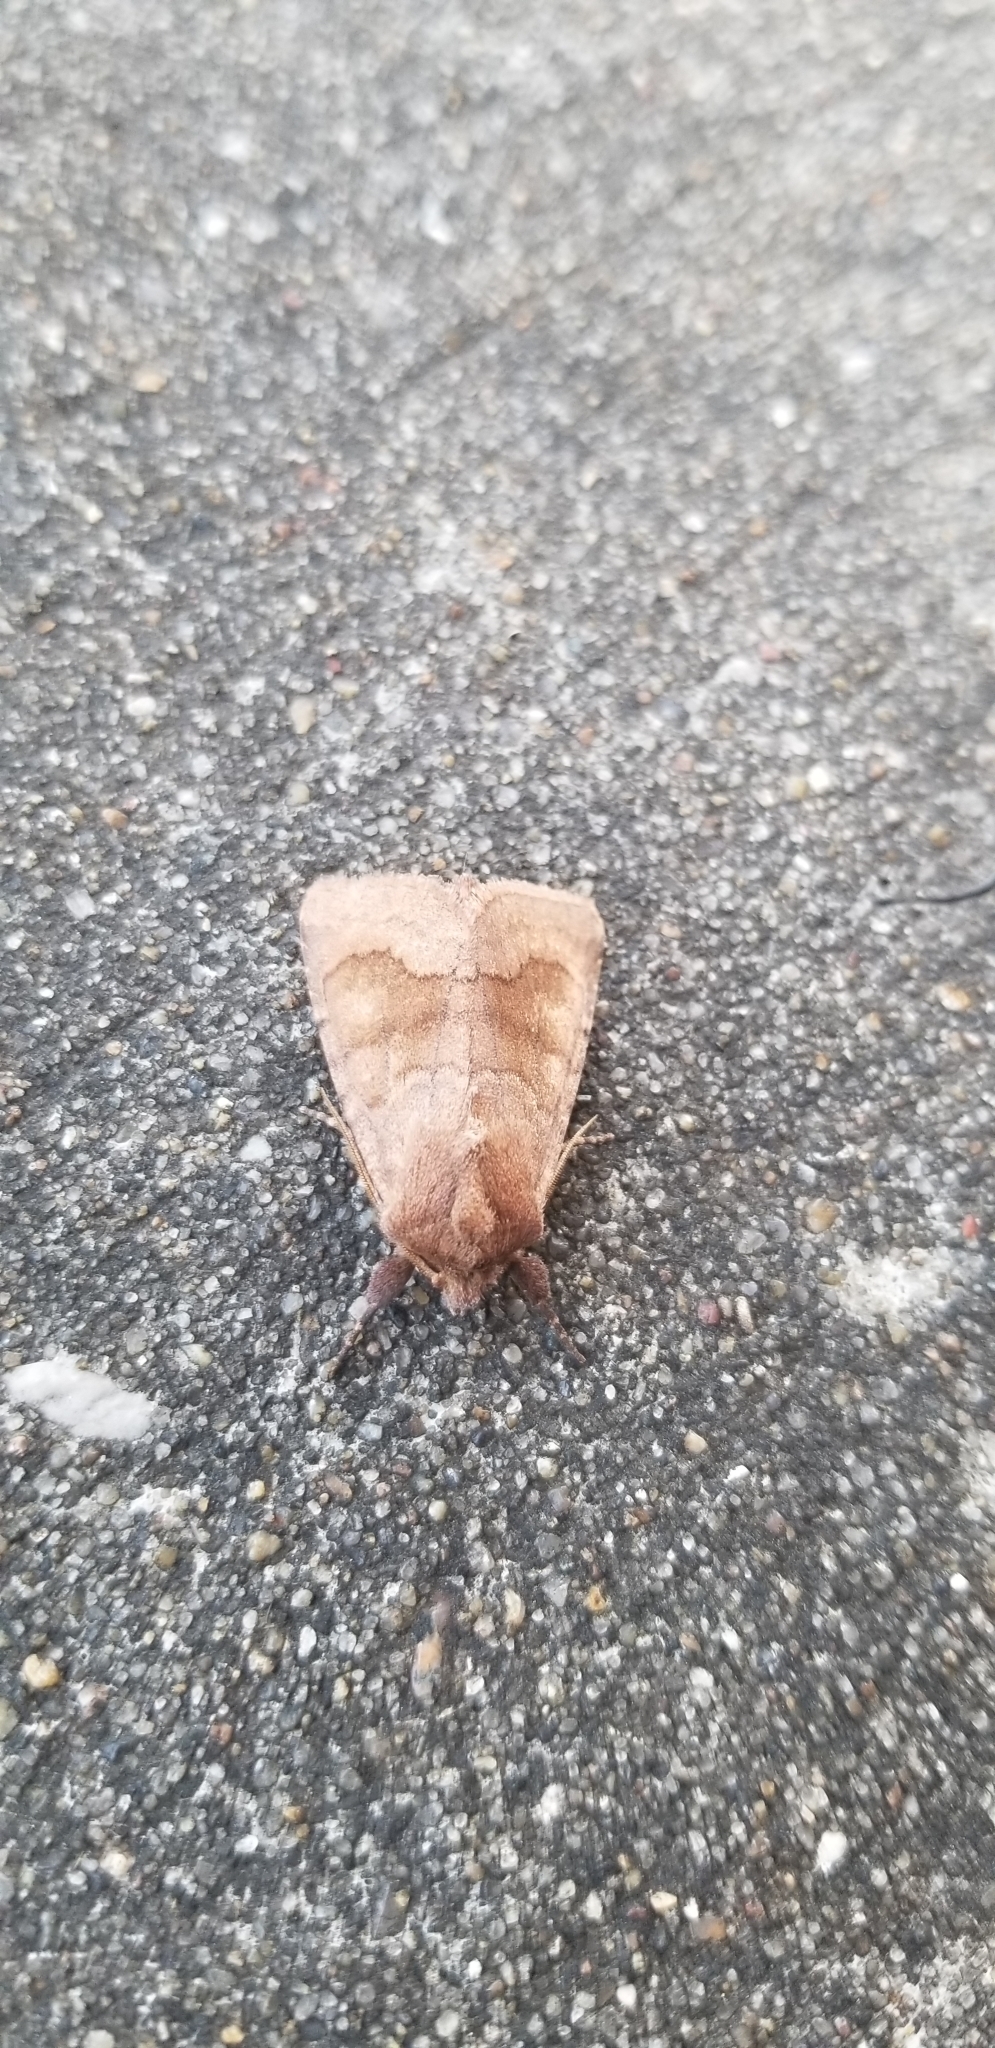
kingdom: Animalia
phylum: Arthropoda
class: Insecta
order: Lepidoptera
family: Noctuidae
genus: Nephelodes
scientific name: Nephelodes minians
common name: Bronzed cutworm
